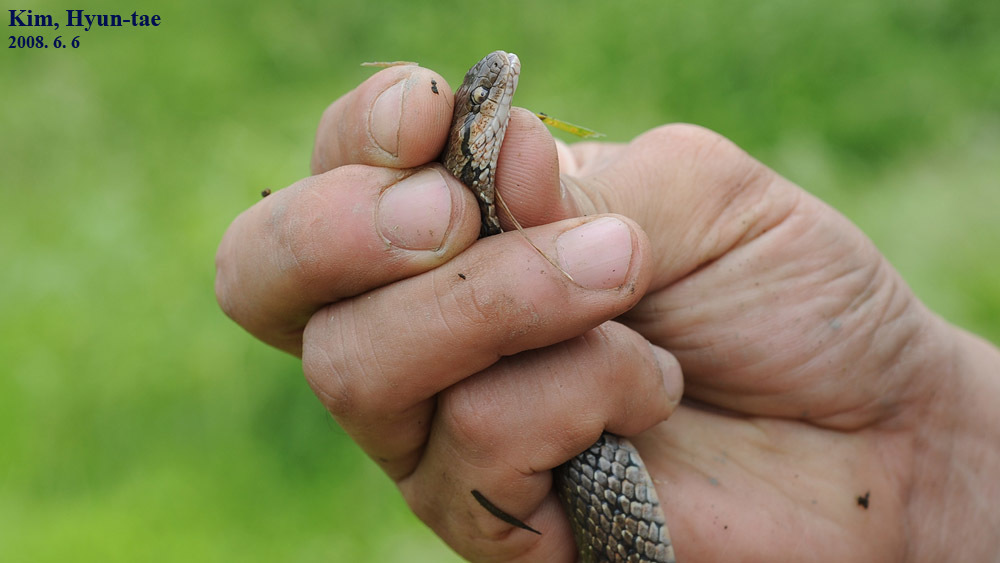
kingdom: Animalia
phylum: Chordata
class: Squamata
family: Colubridae
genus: Oocatochus
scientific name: Oocatochus rufodorsatus
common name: Frog-eating rat snake
